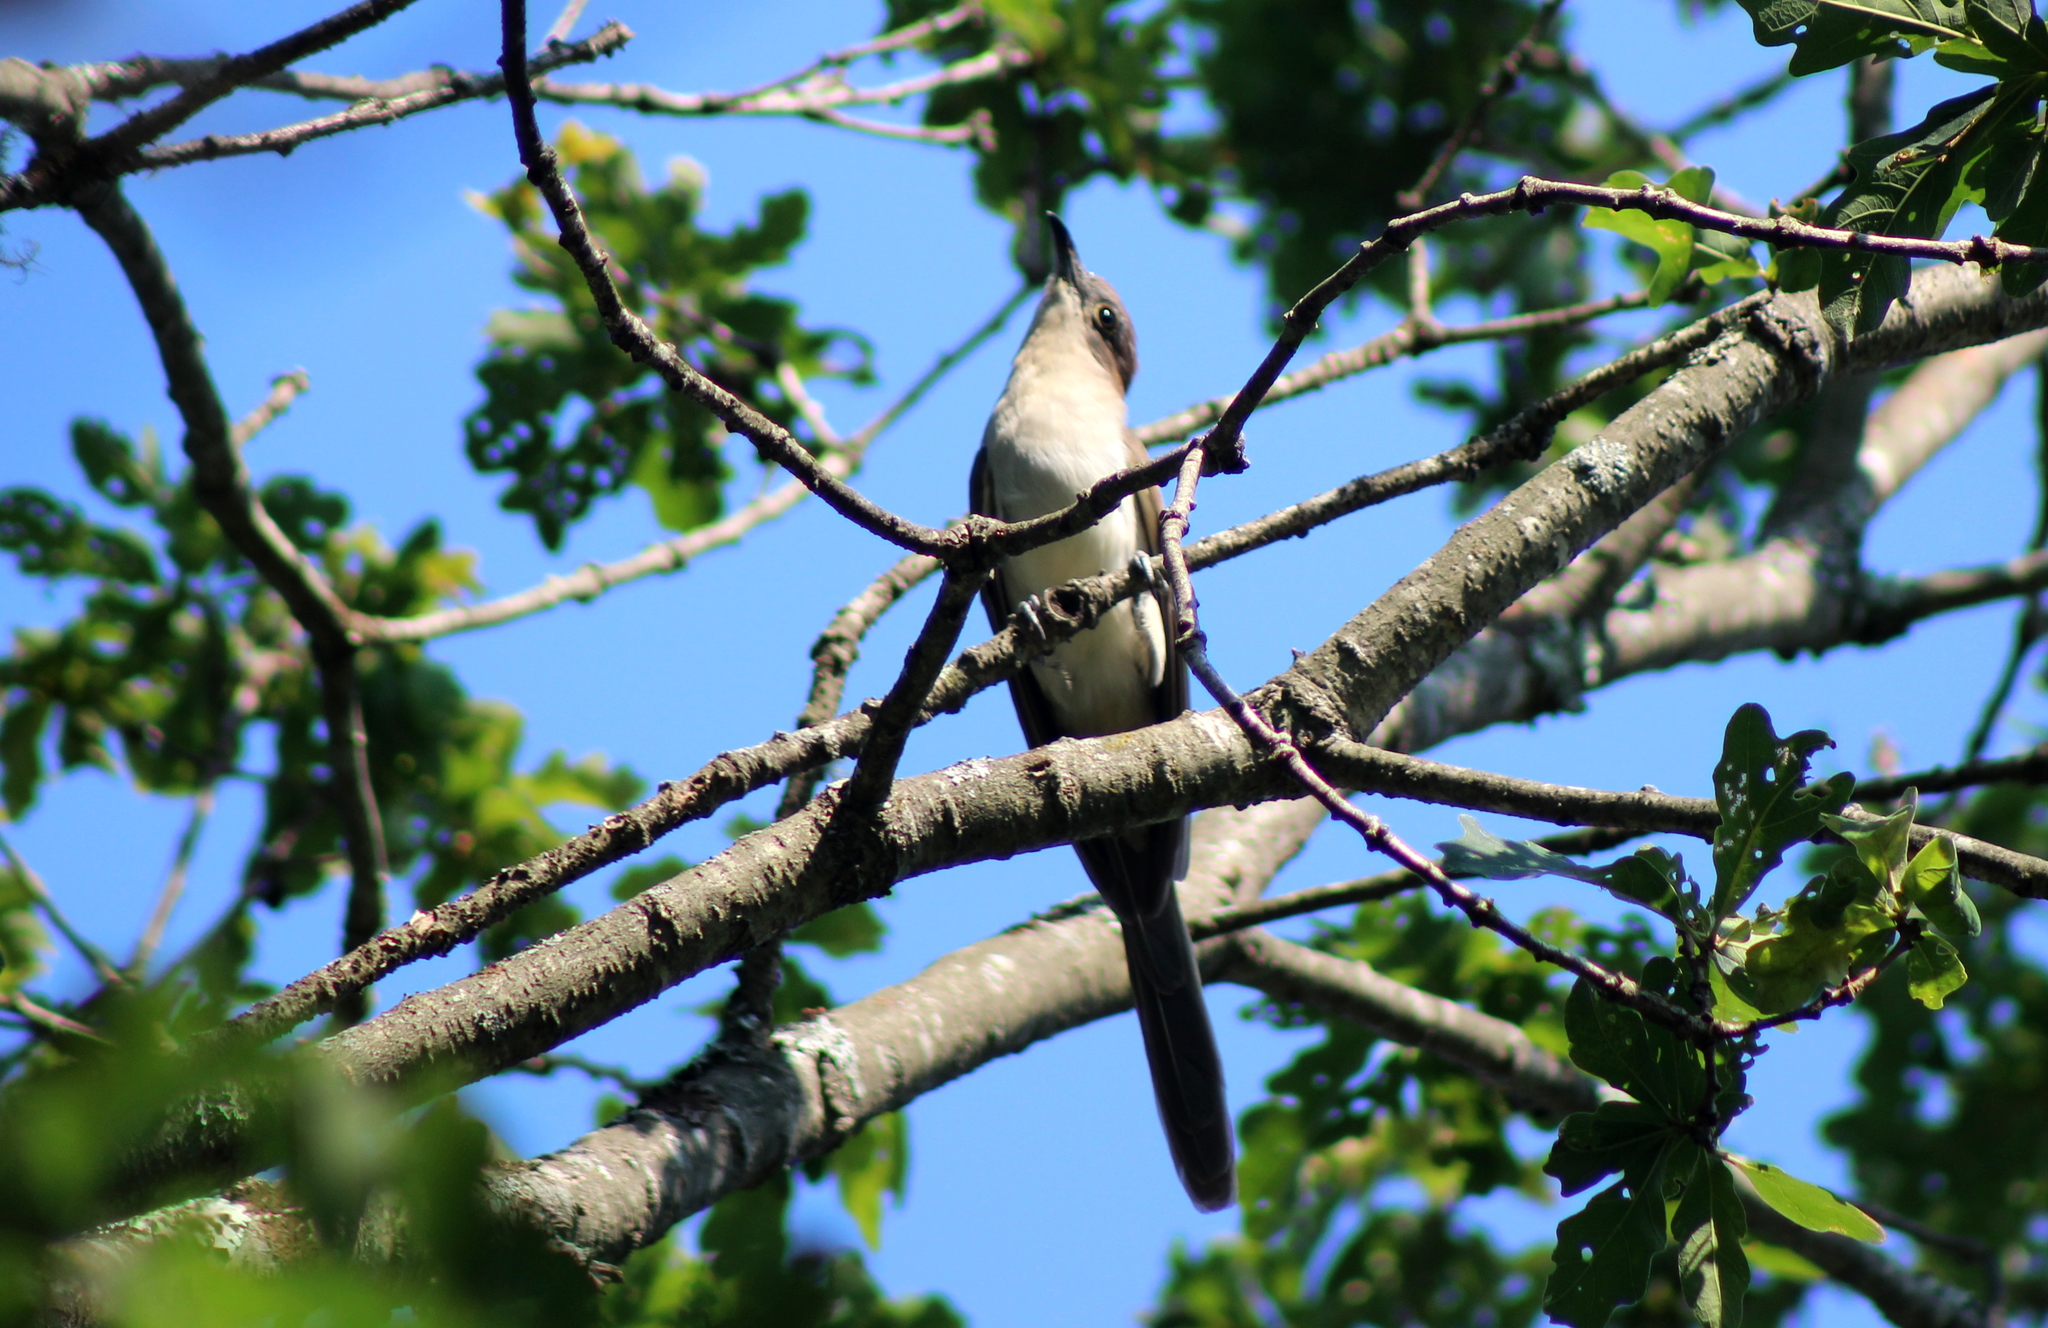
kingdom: Animalia
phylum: Chordata
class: Aves
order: Cuculiformes
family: Cuculidae
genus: Coccyzus
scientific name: Coccyzus erythropthalmus
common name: Black-billed cuckoo
